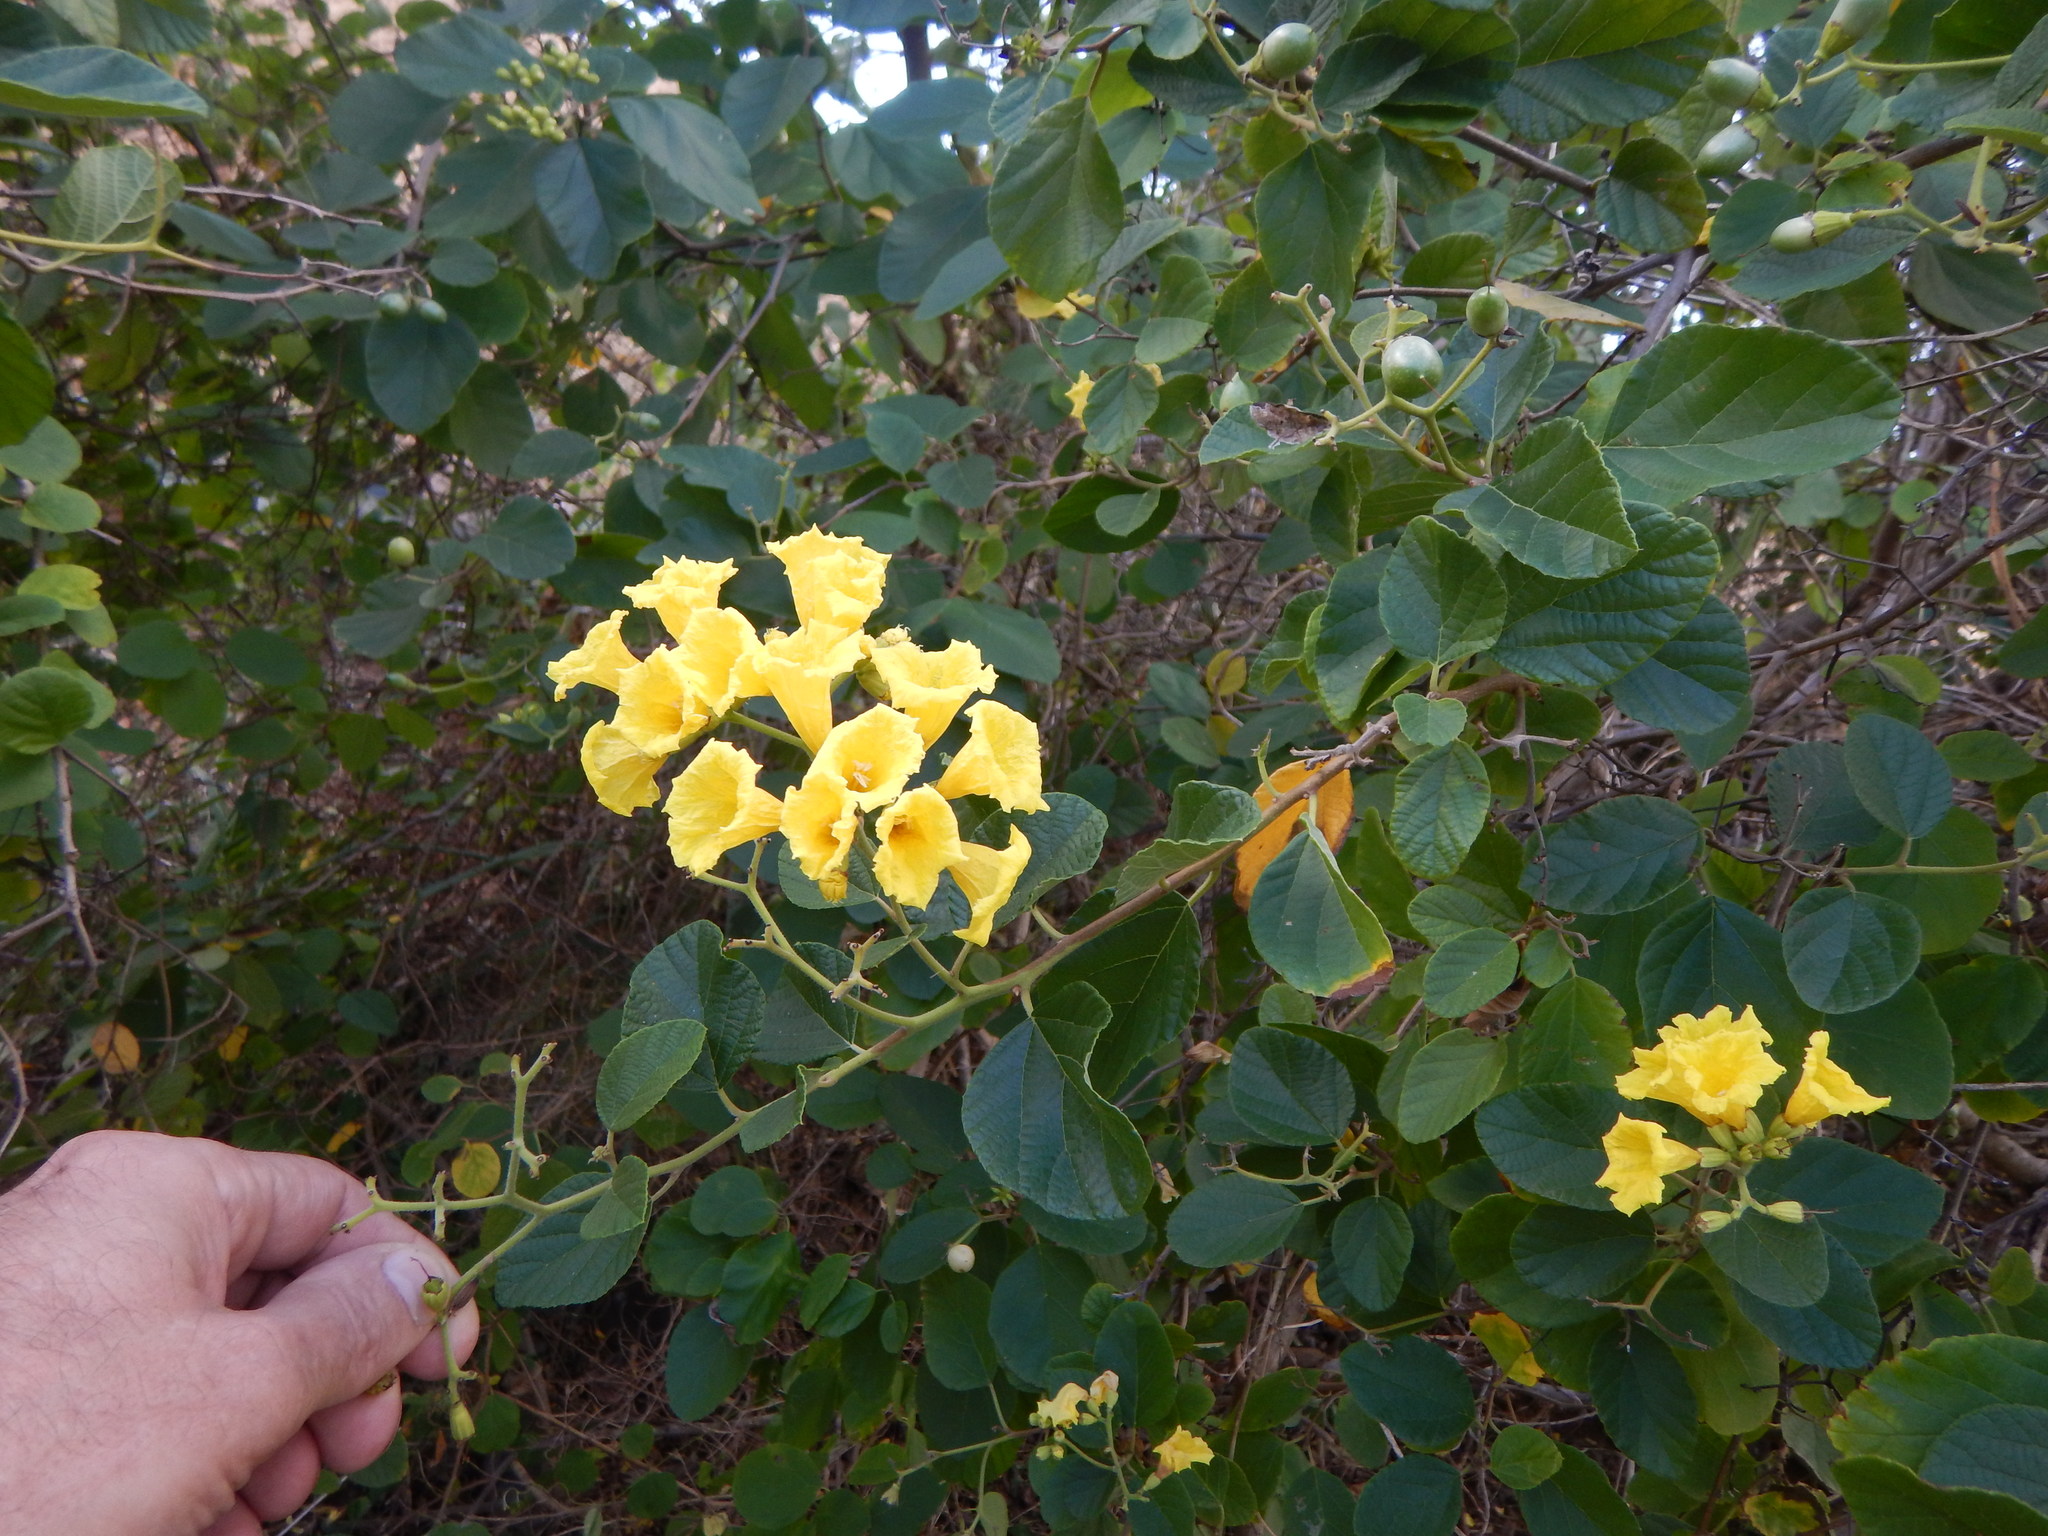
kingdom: Plantae
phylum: Tracheophyta
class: Magnoliopsida
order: Boraginales
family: Cordiaceae
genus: Cordia
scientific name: Cordia lutea
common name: Yellow geiger
